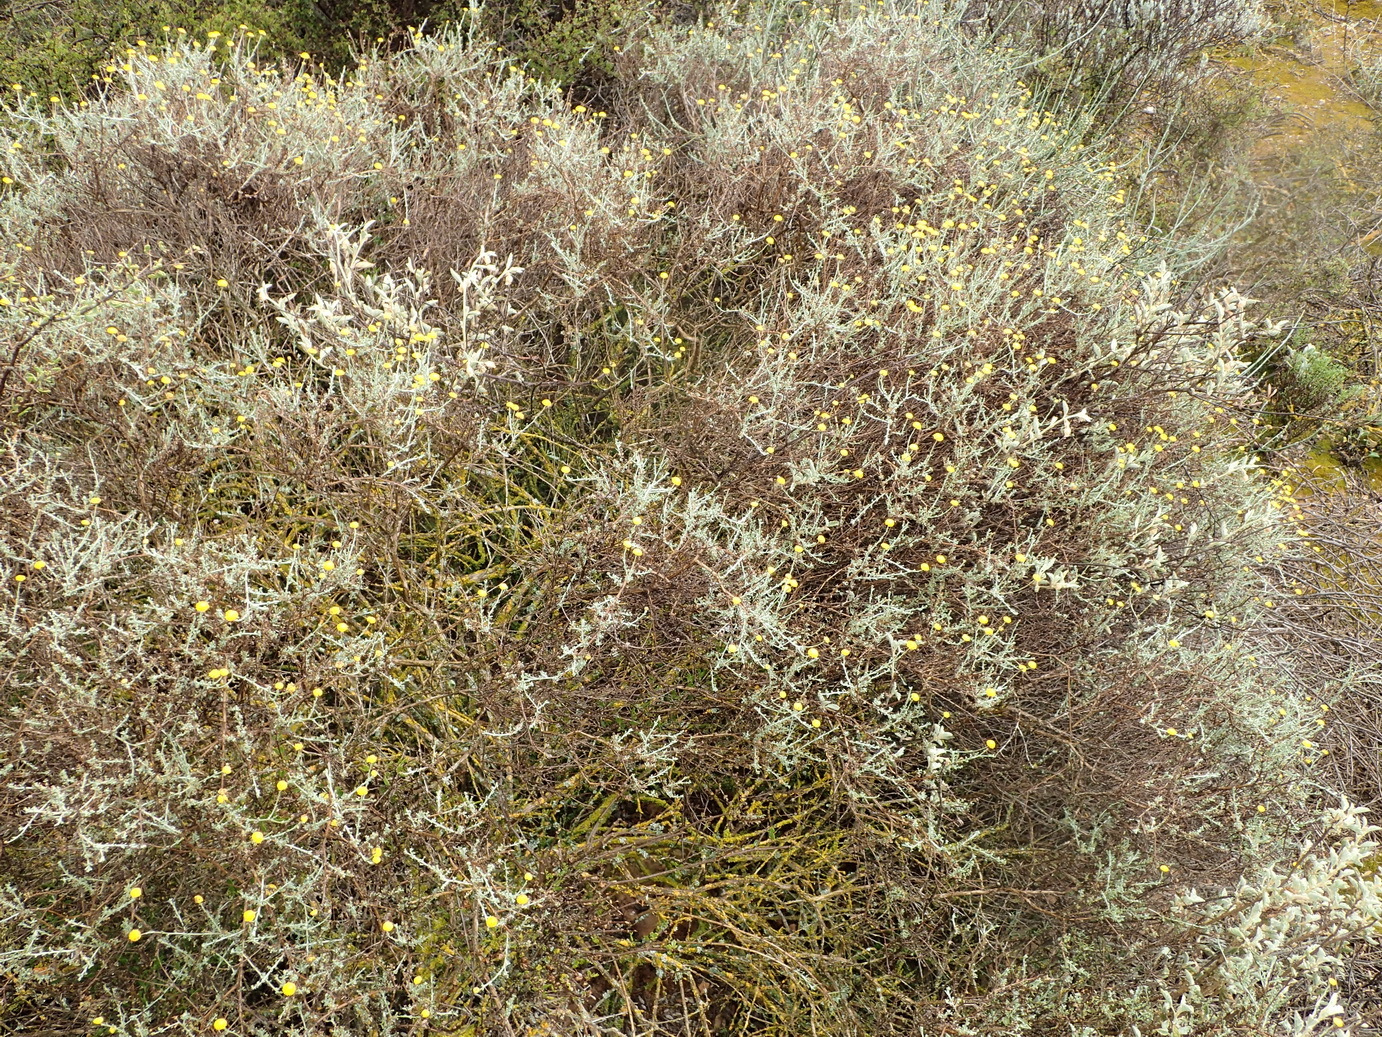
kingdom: Plantae
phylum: Tracheophyta
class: Magnoliopsida
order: Asterales
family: Asteraceae
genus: Pentzia
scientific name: Pentzia incana
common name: African sheepbush
